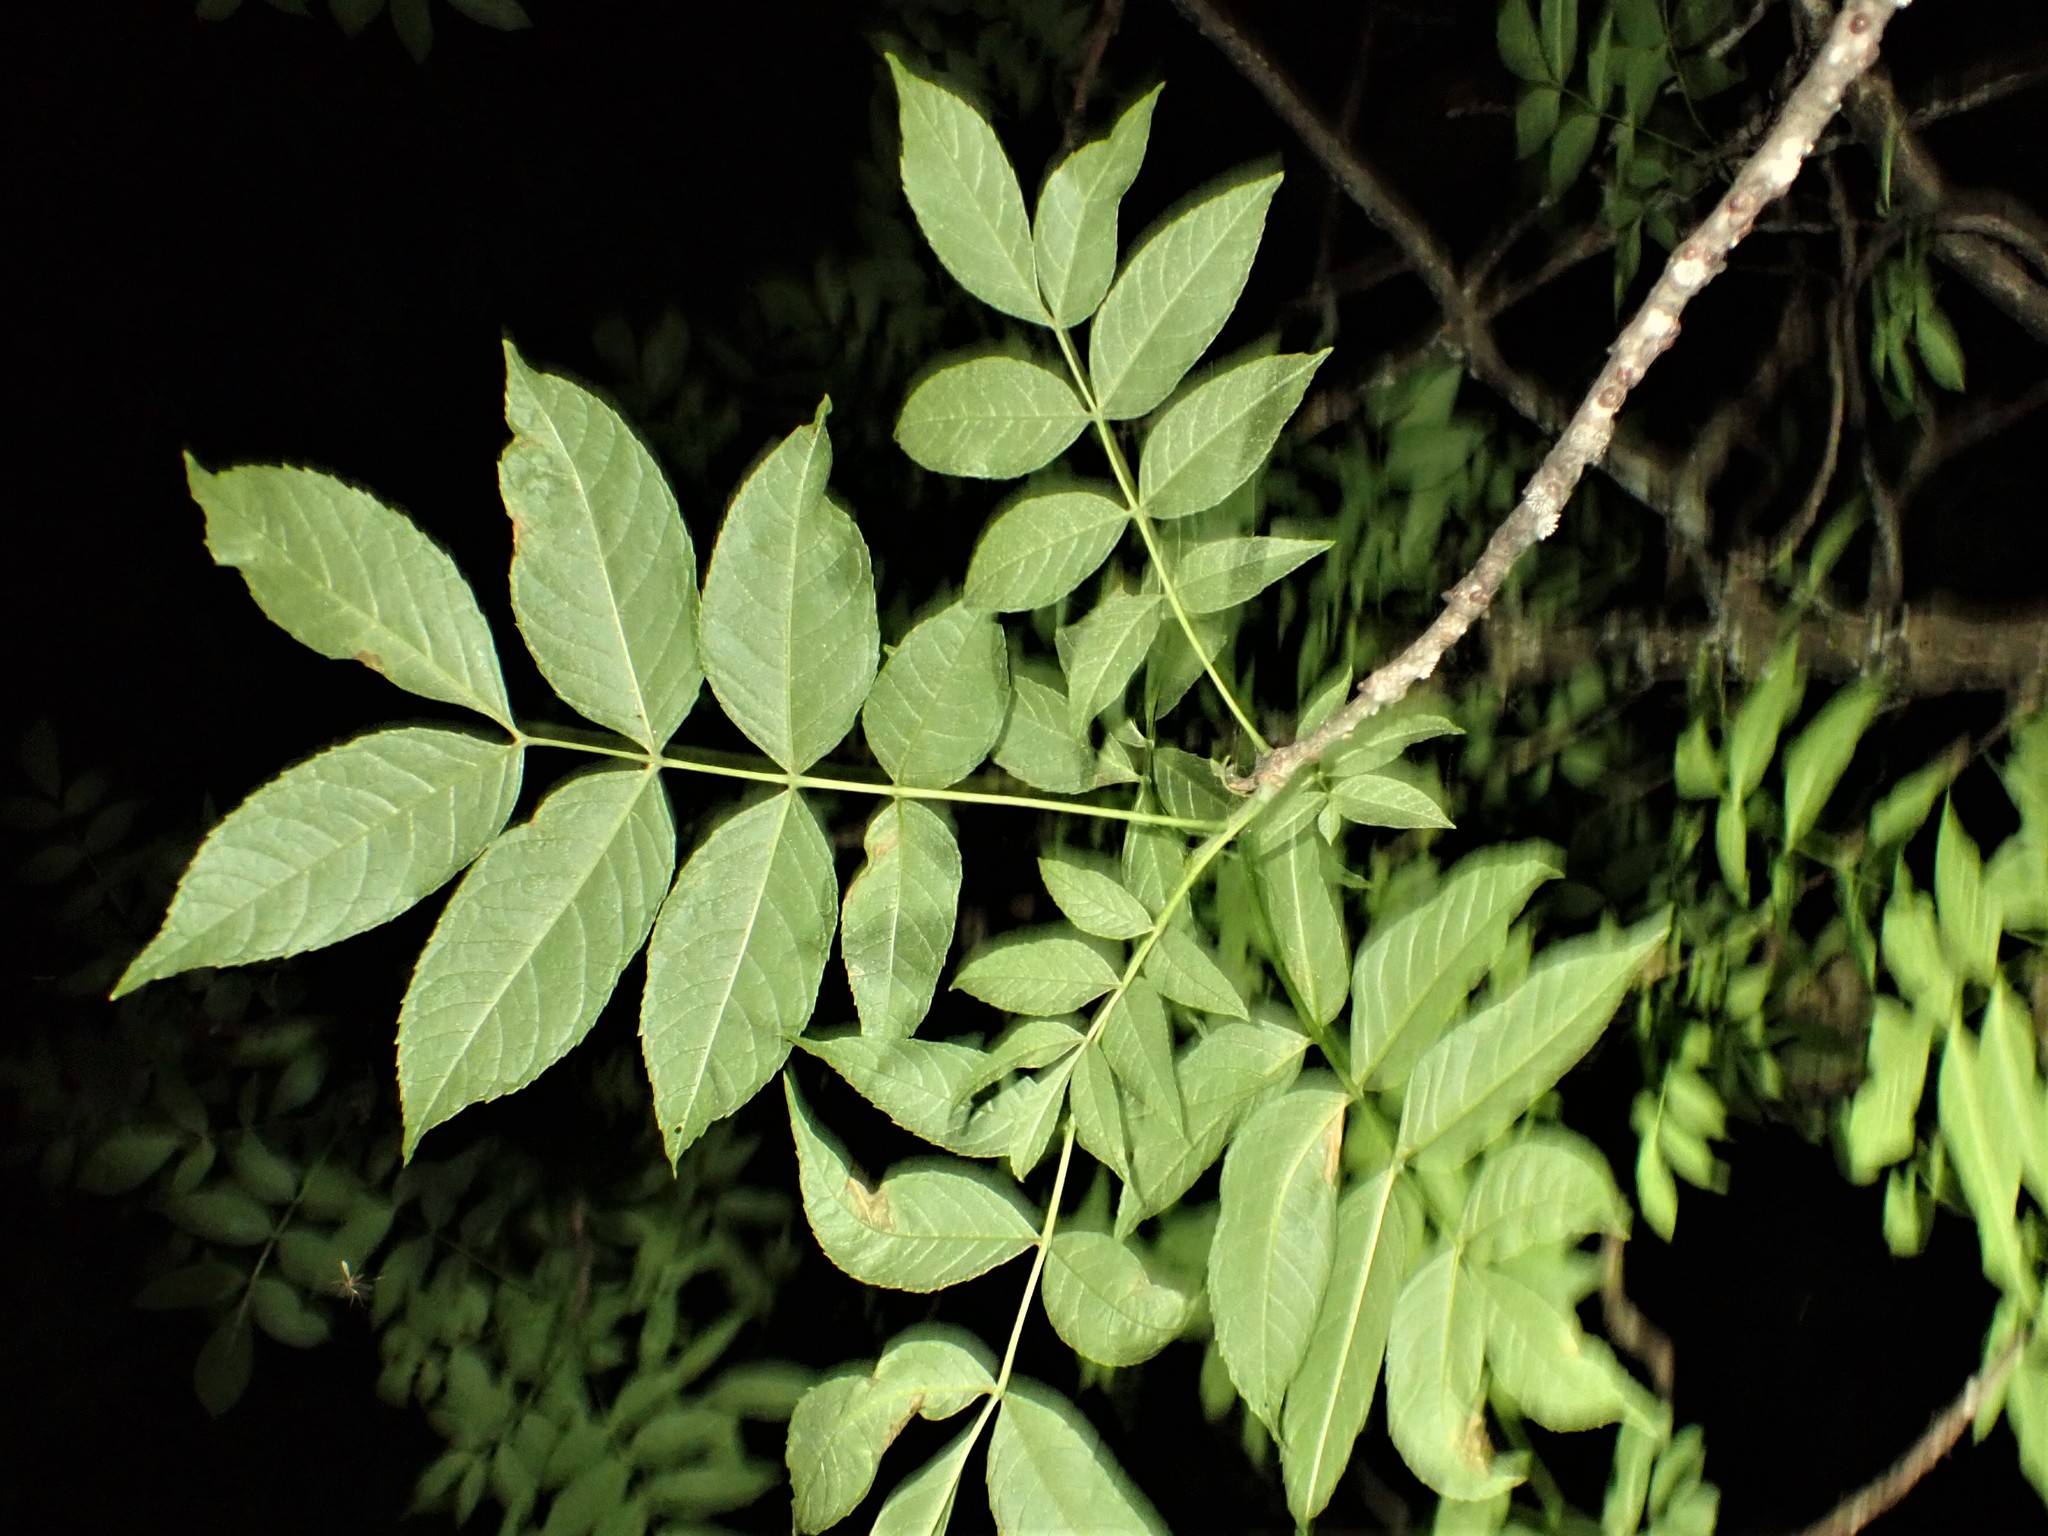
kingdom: Plantae
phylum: Tracheophyta
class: Magnoliopsida
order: Lamiales
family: Oleaceae
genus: Fraxinus
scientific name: Fraxinus nigra
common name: Black ash
